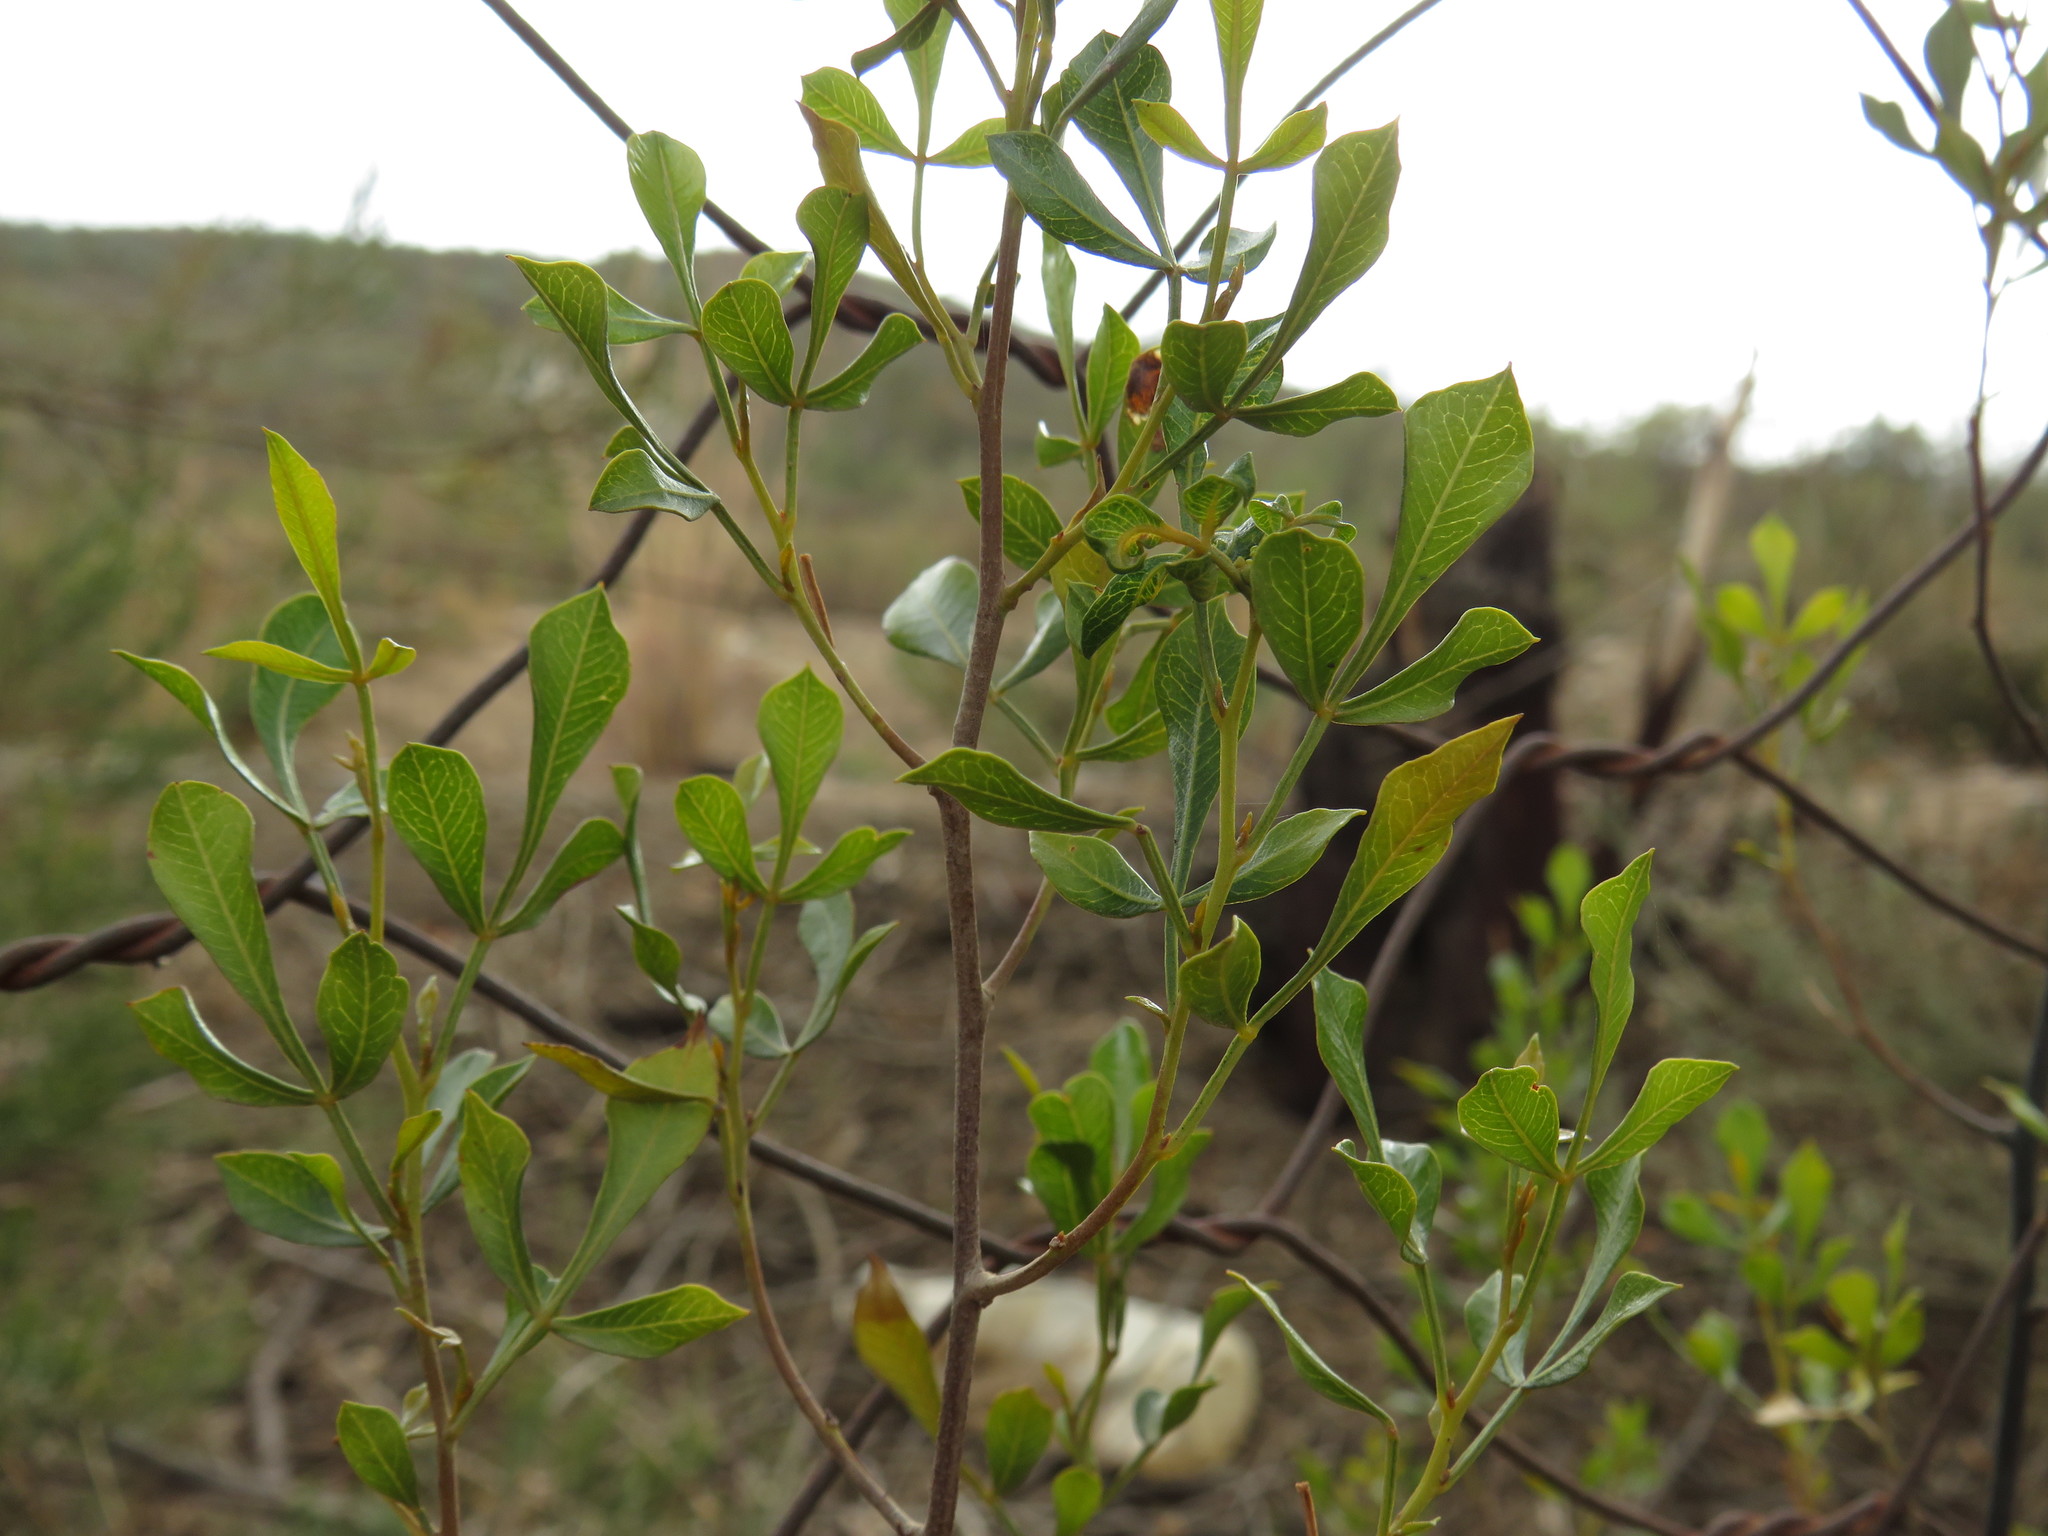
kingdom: Plantae
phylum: Tracheophyta
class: Magnoliopsida
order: Sapindales
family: Anacardiaceae
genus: Searsia
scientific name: Searsia pallens
